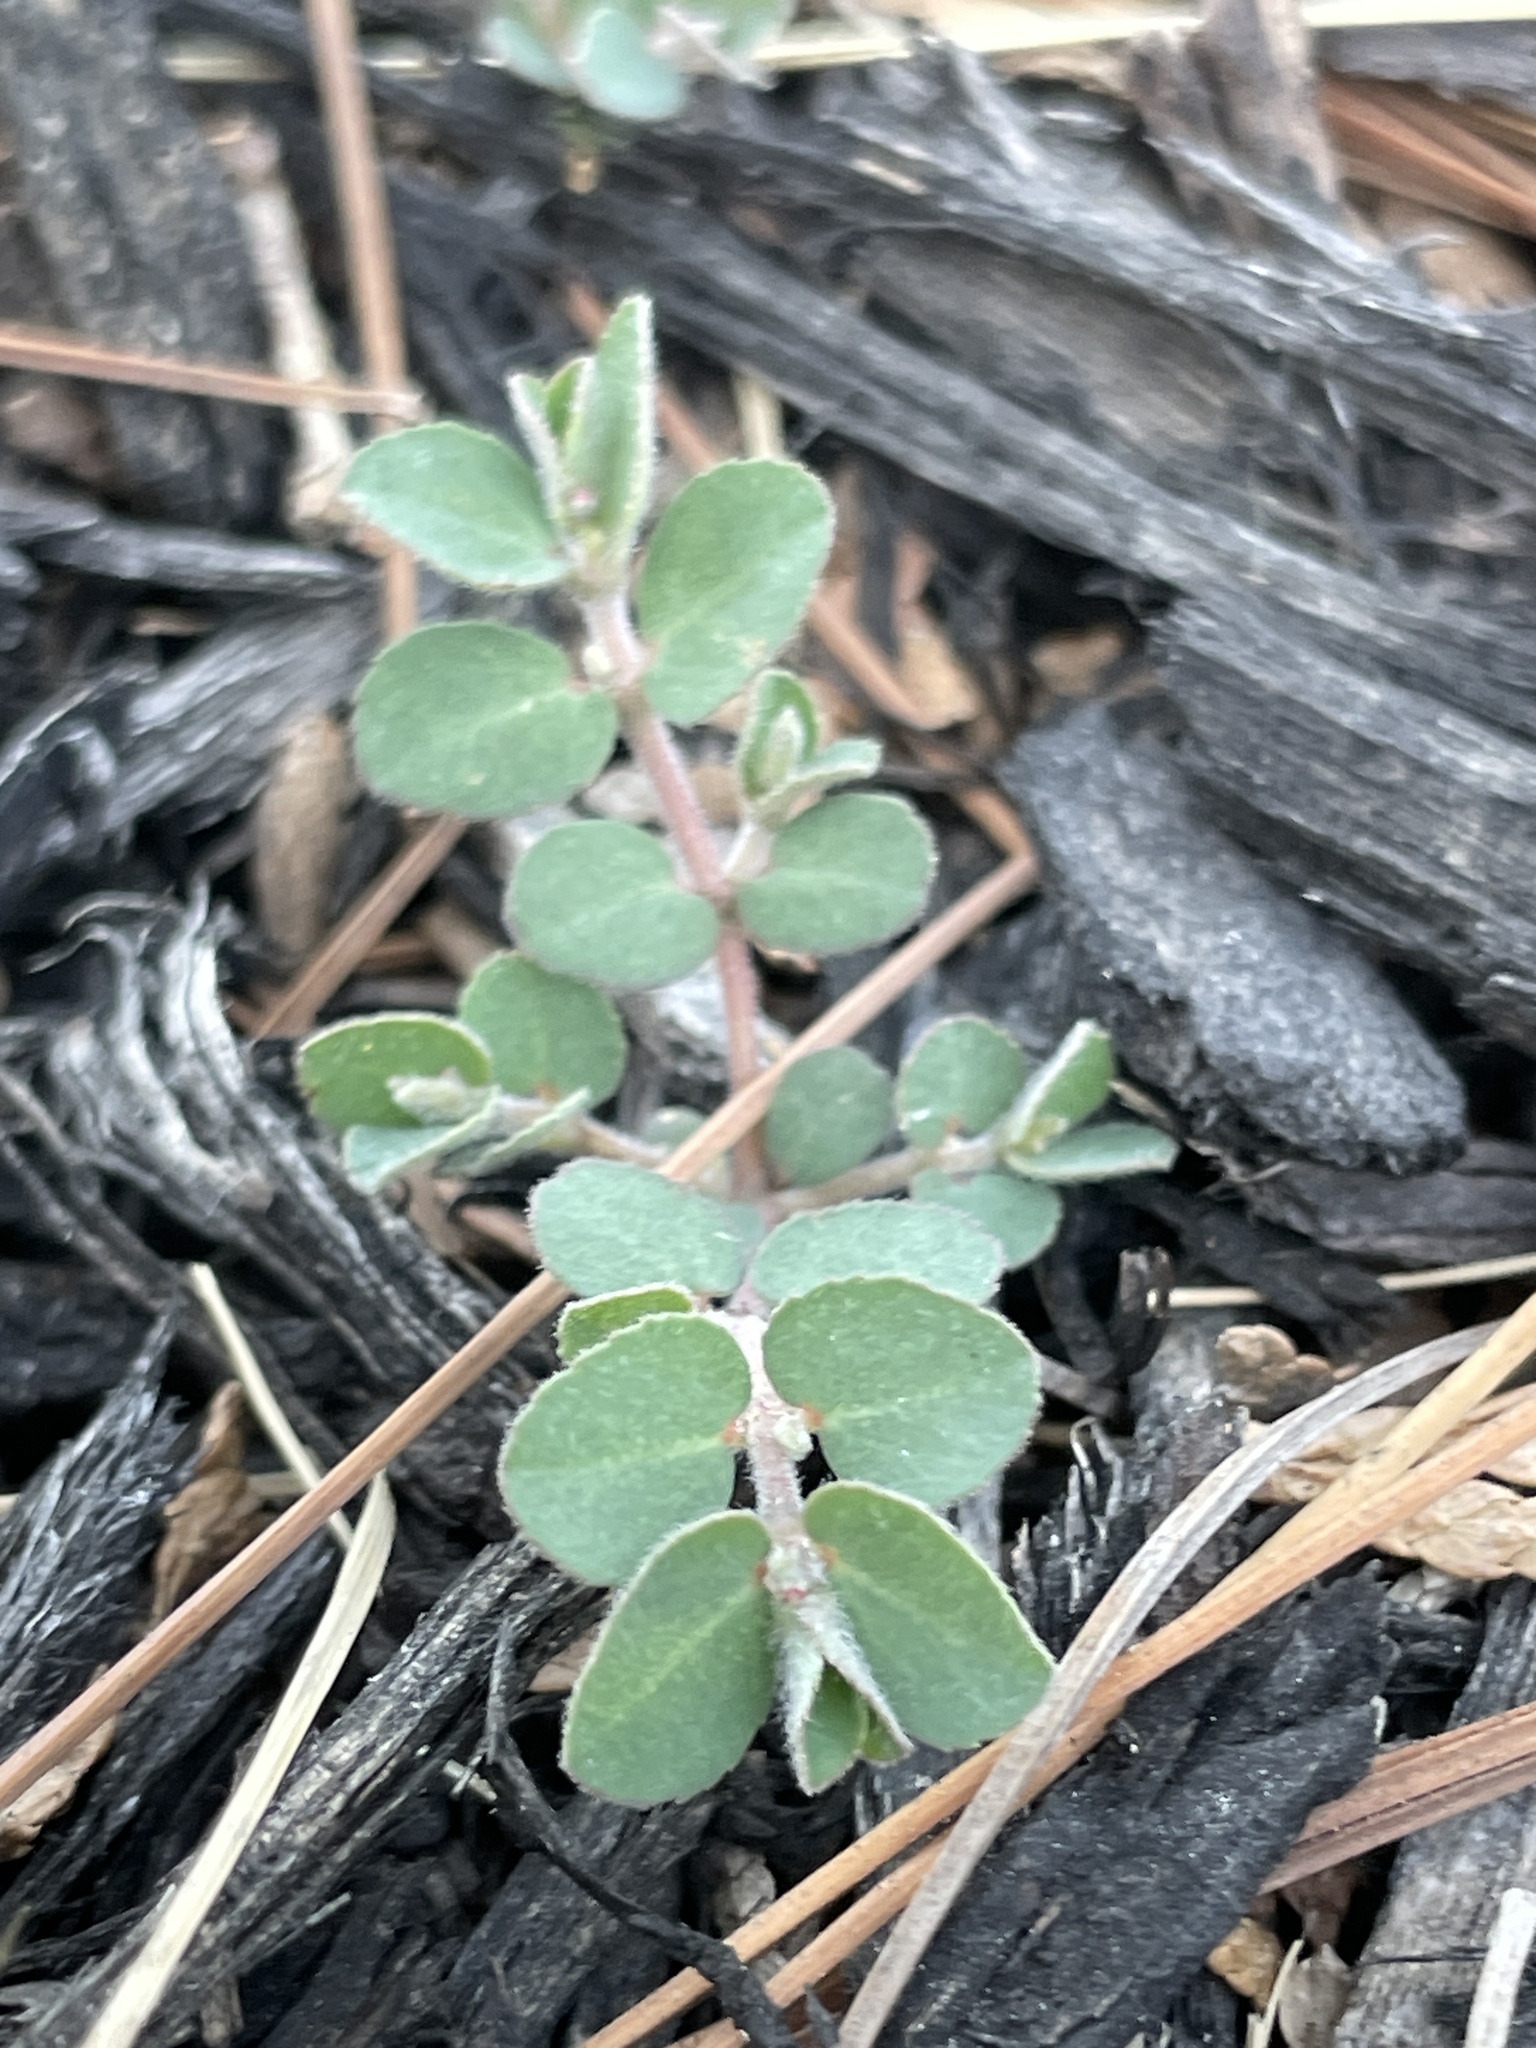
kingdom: Plantae
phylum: Tracheophyta
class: Magnoliopsida
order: Malpighiales
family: Euphorbiaceae
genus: Euphorbia
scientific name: Euphorbia prostrata
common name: Prostrate sandmat
